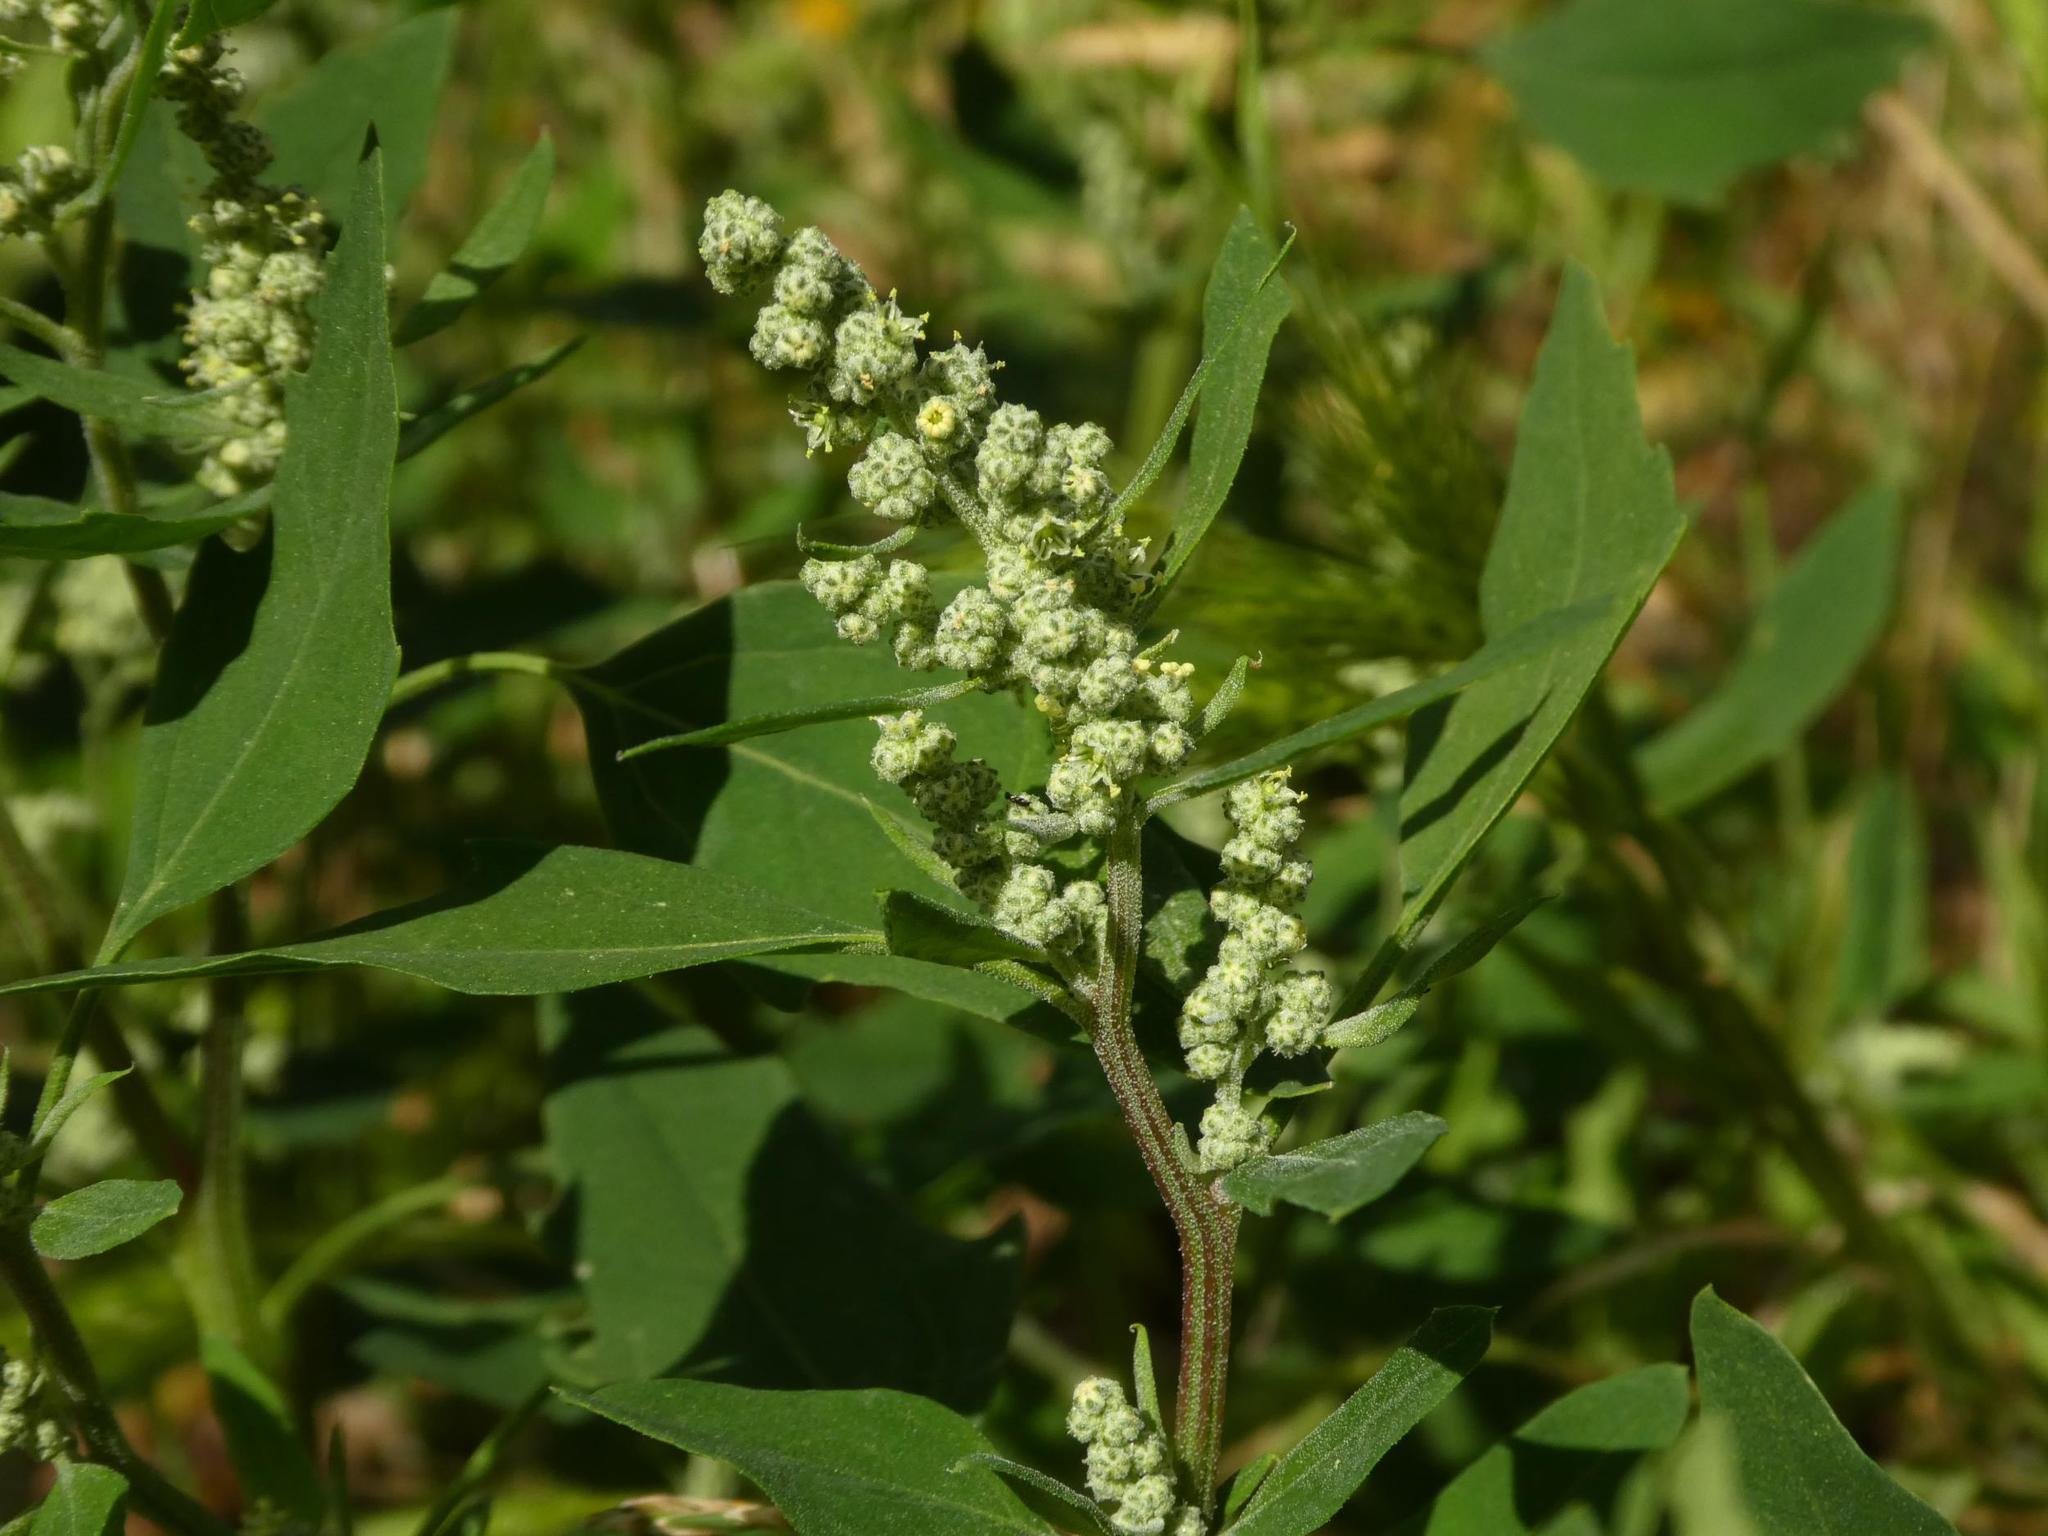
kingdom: Plantae
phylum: Tracheophyta
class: Magnoliopsida
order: Caryophyllales
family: Amaranthaceae
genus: Chenopodium
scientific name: Chenopodium album
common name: Fat-hen
